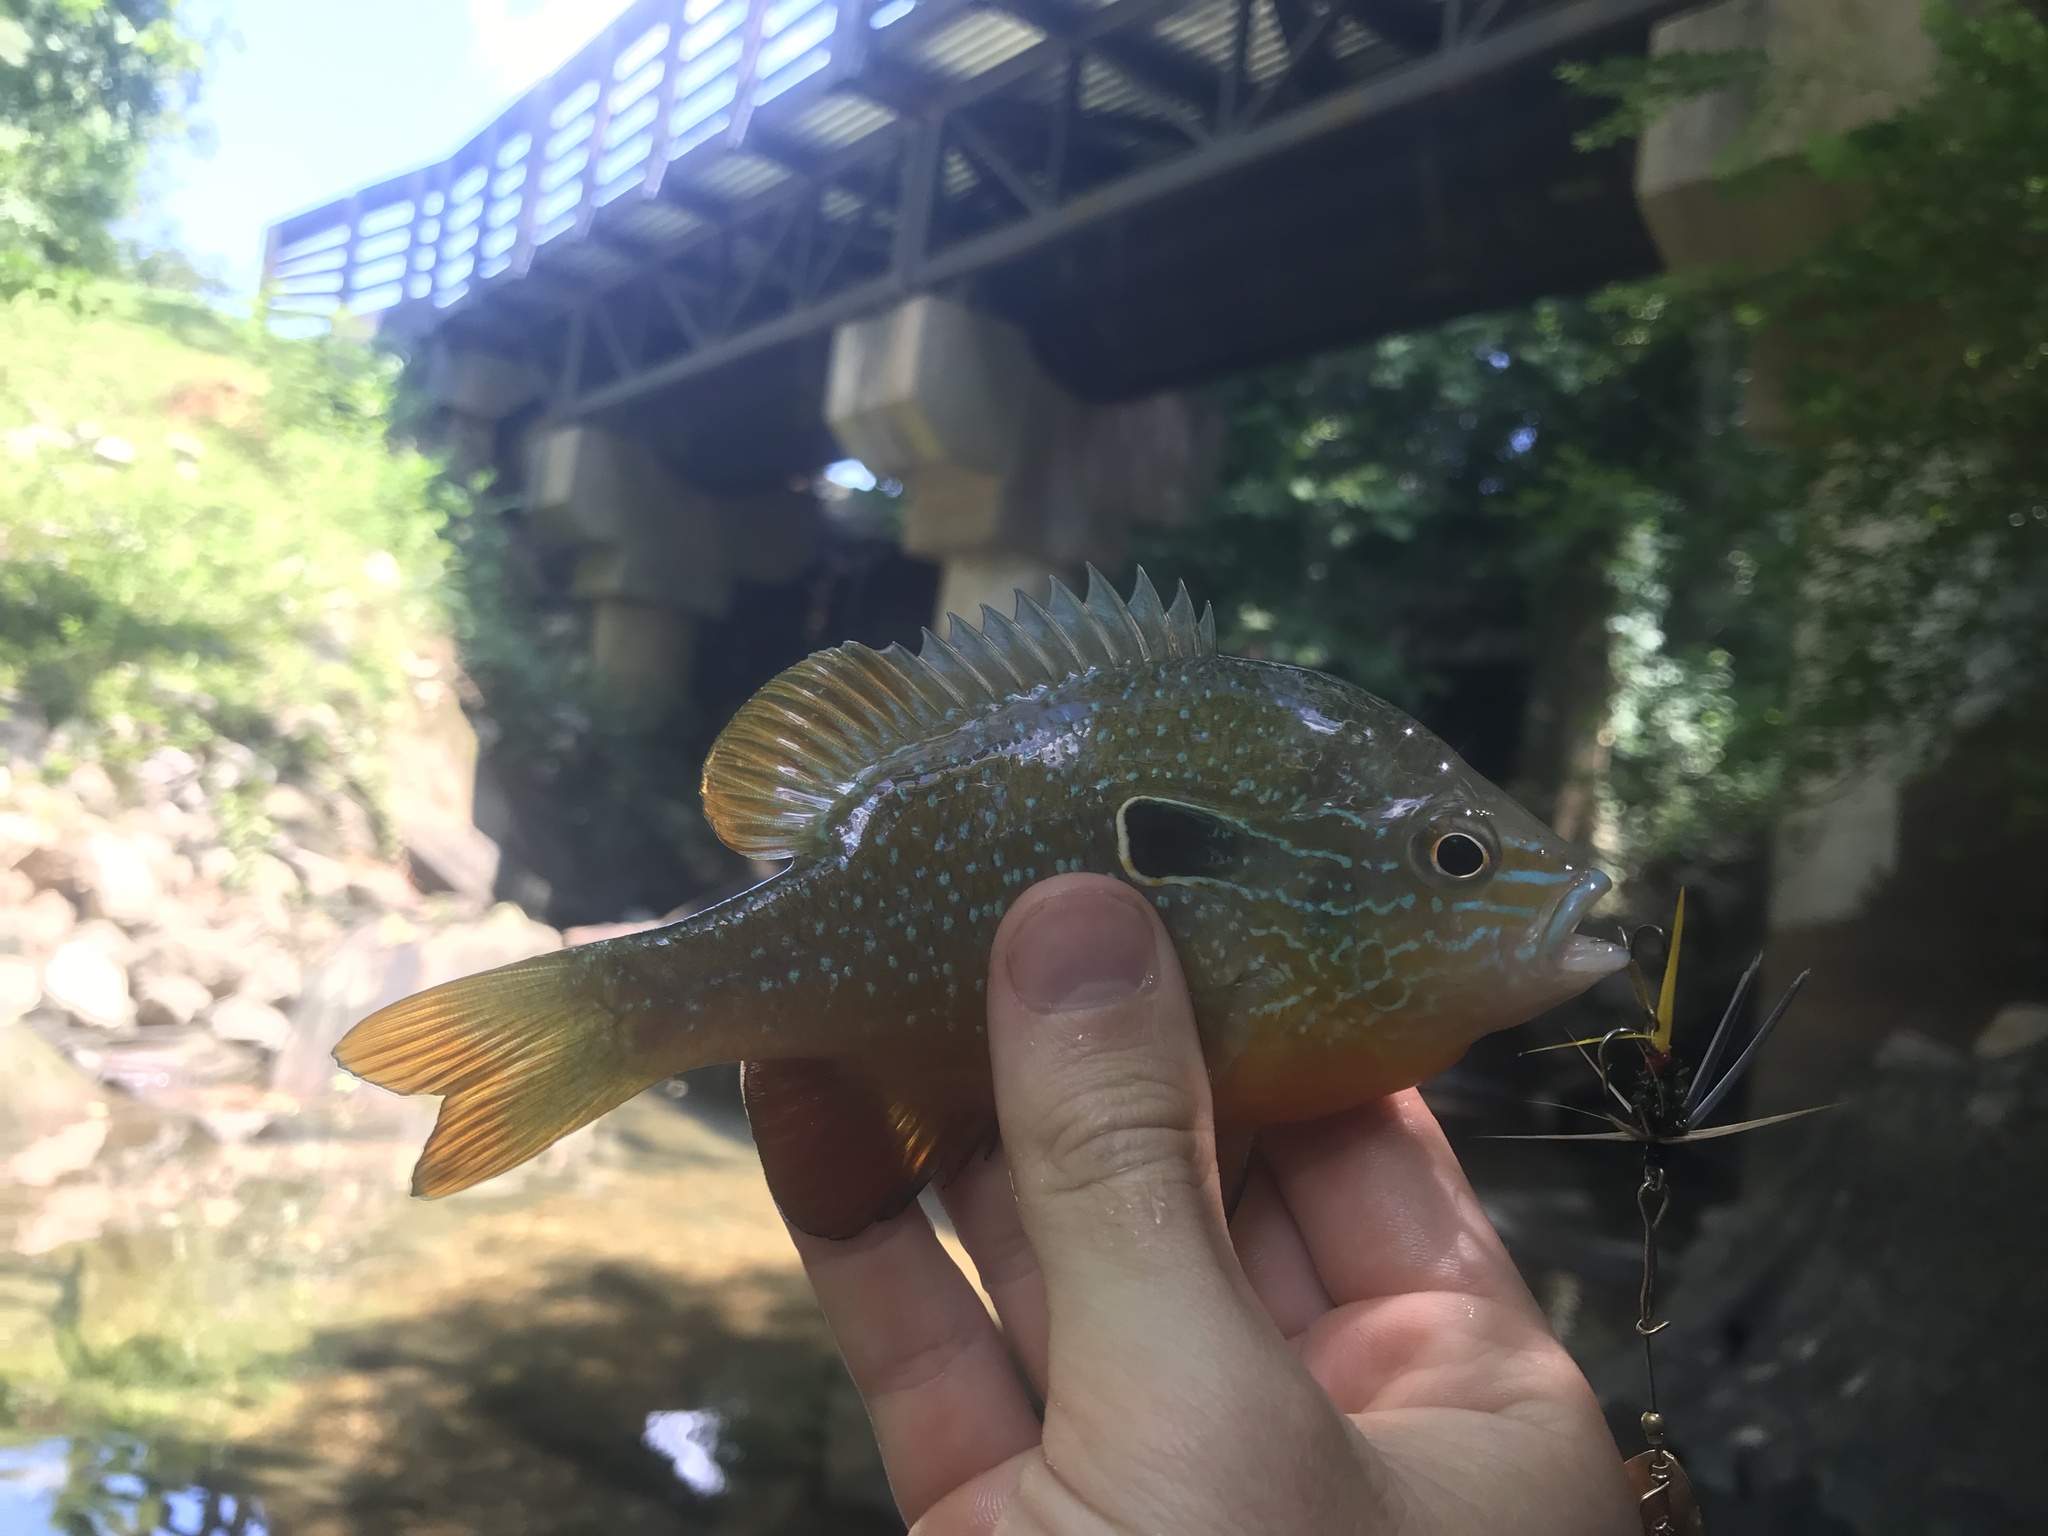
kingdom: Animalia
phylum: Chordata
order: Perciformes
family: Centrarchidae
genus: Lepomis
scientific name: Lepomis megalotis
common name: Longear sunfish
